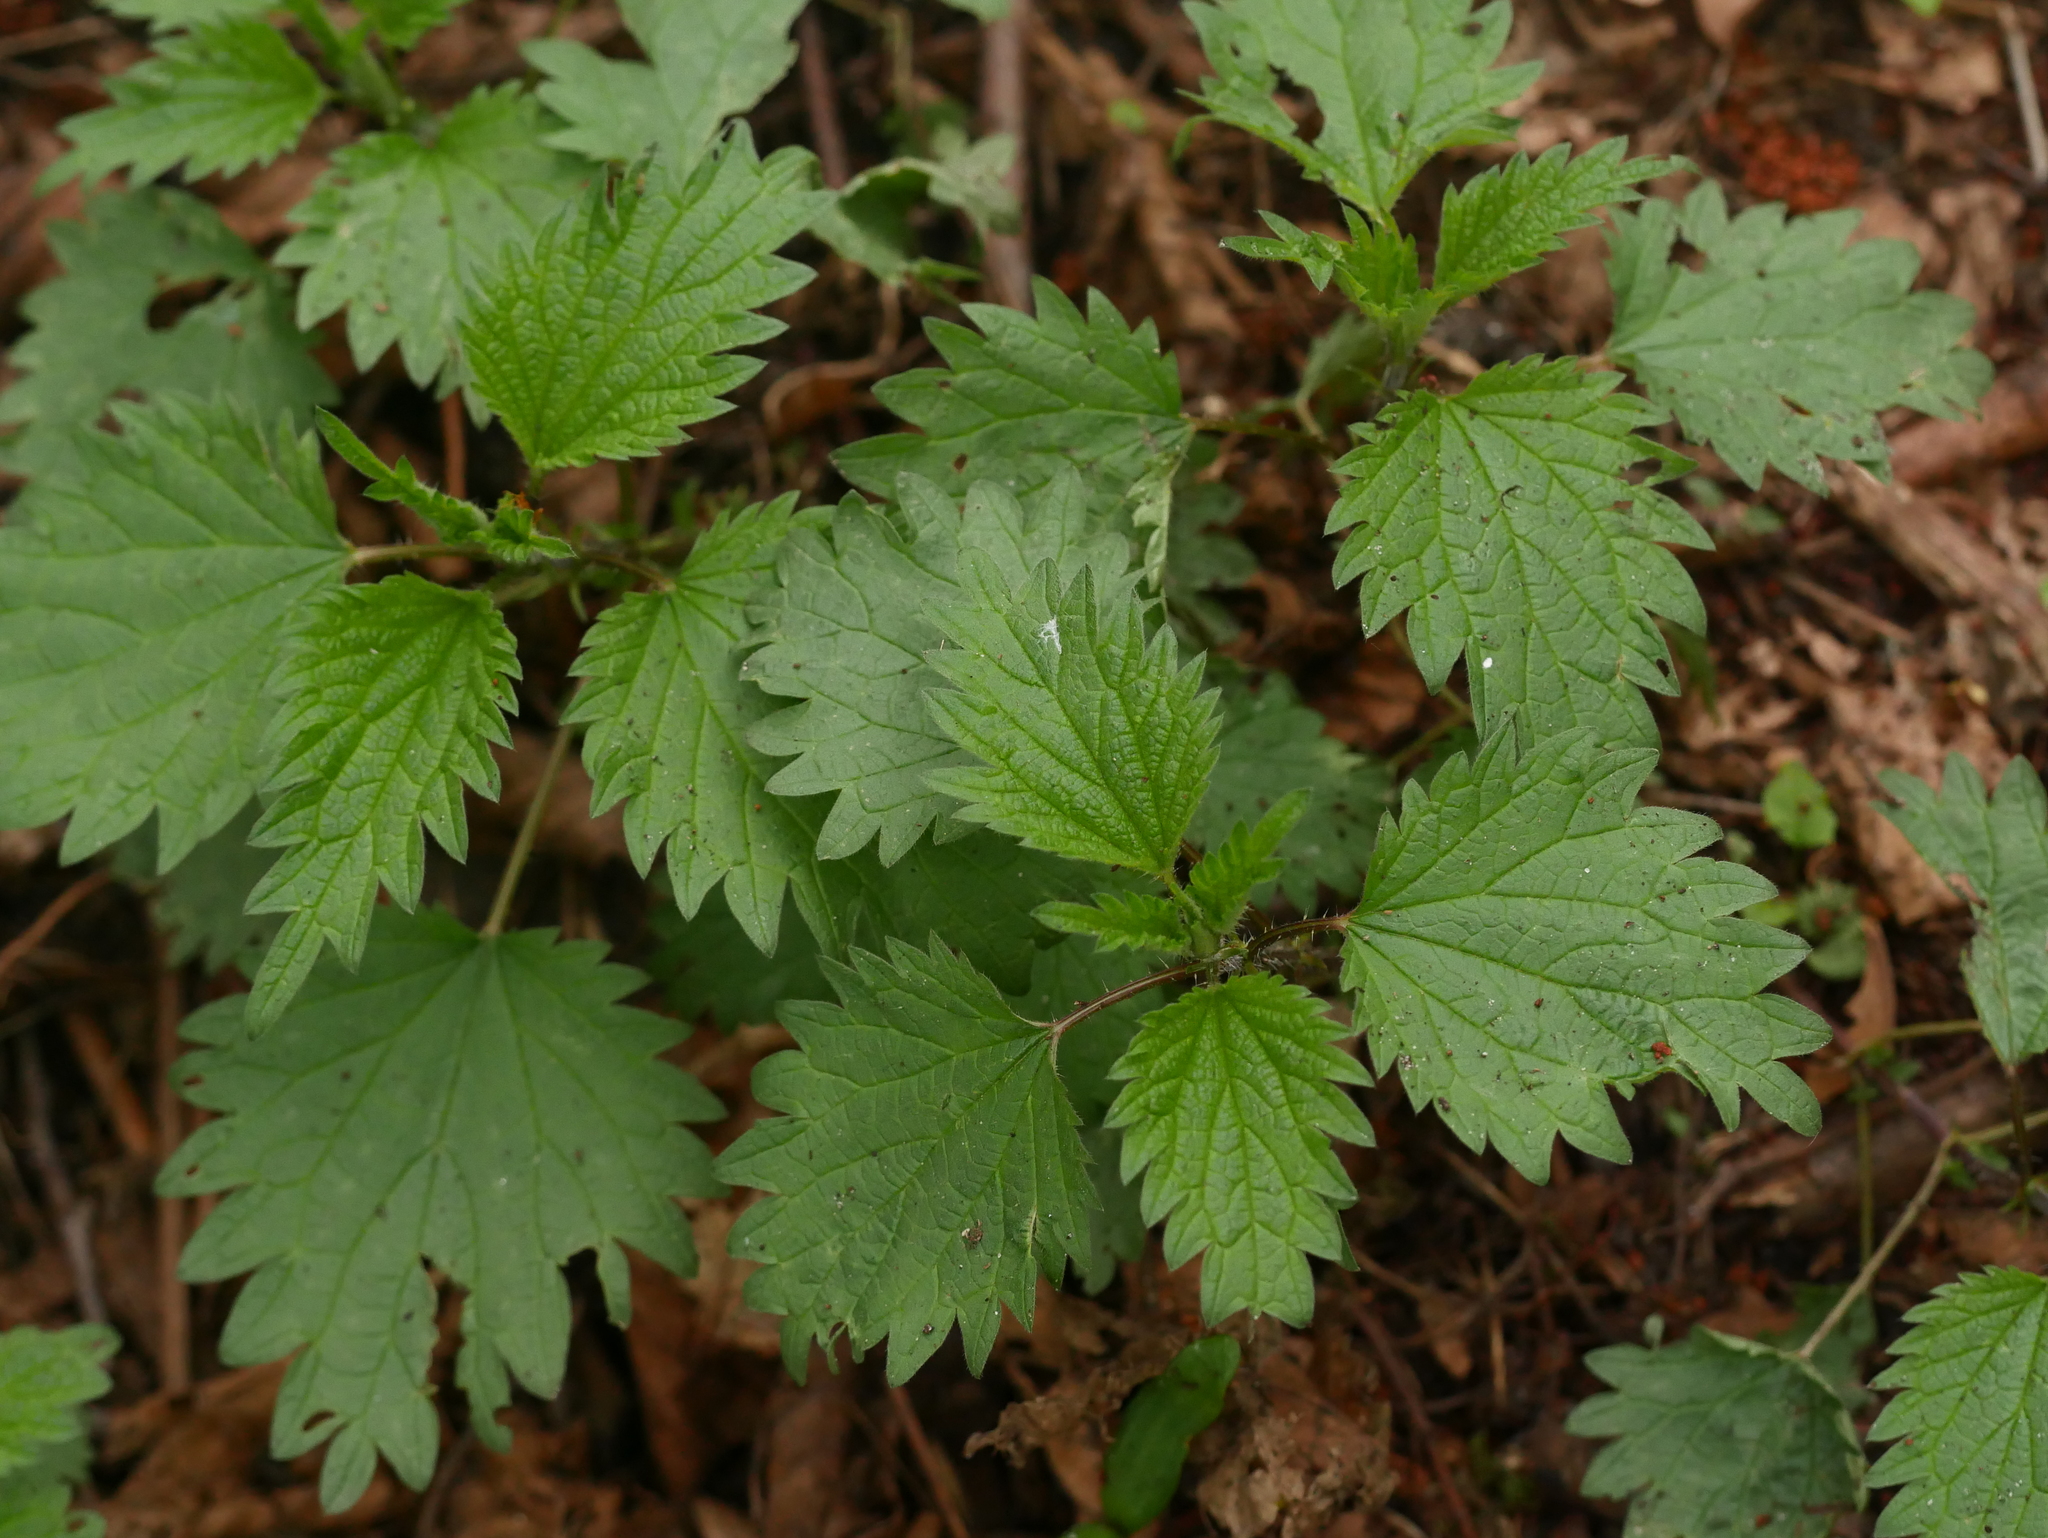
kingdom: Plantae
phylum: Tracheophyta
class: Magnoliopsida
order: Rosales
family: Urticaceae
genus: Urtica
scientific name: Urtica dioica
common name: Common nettle
